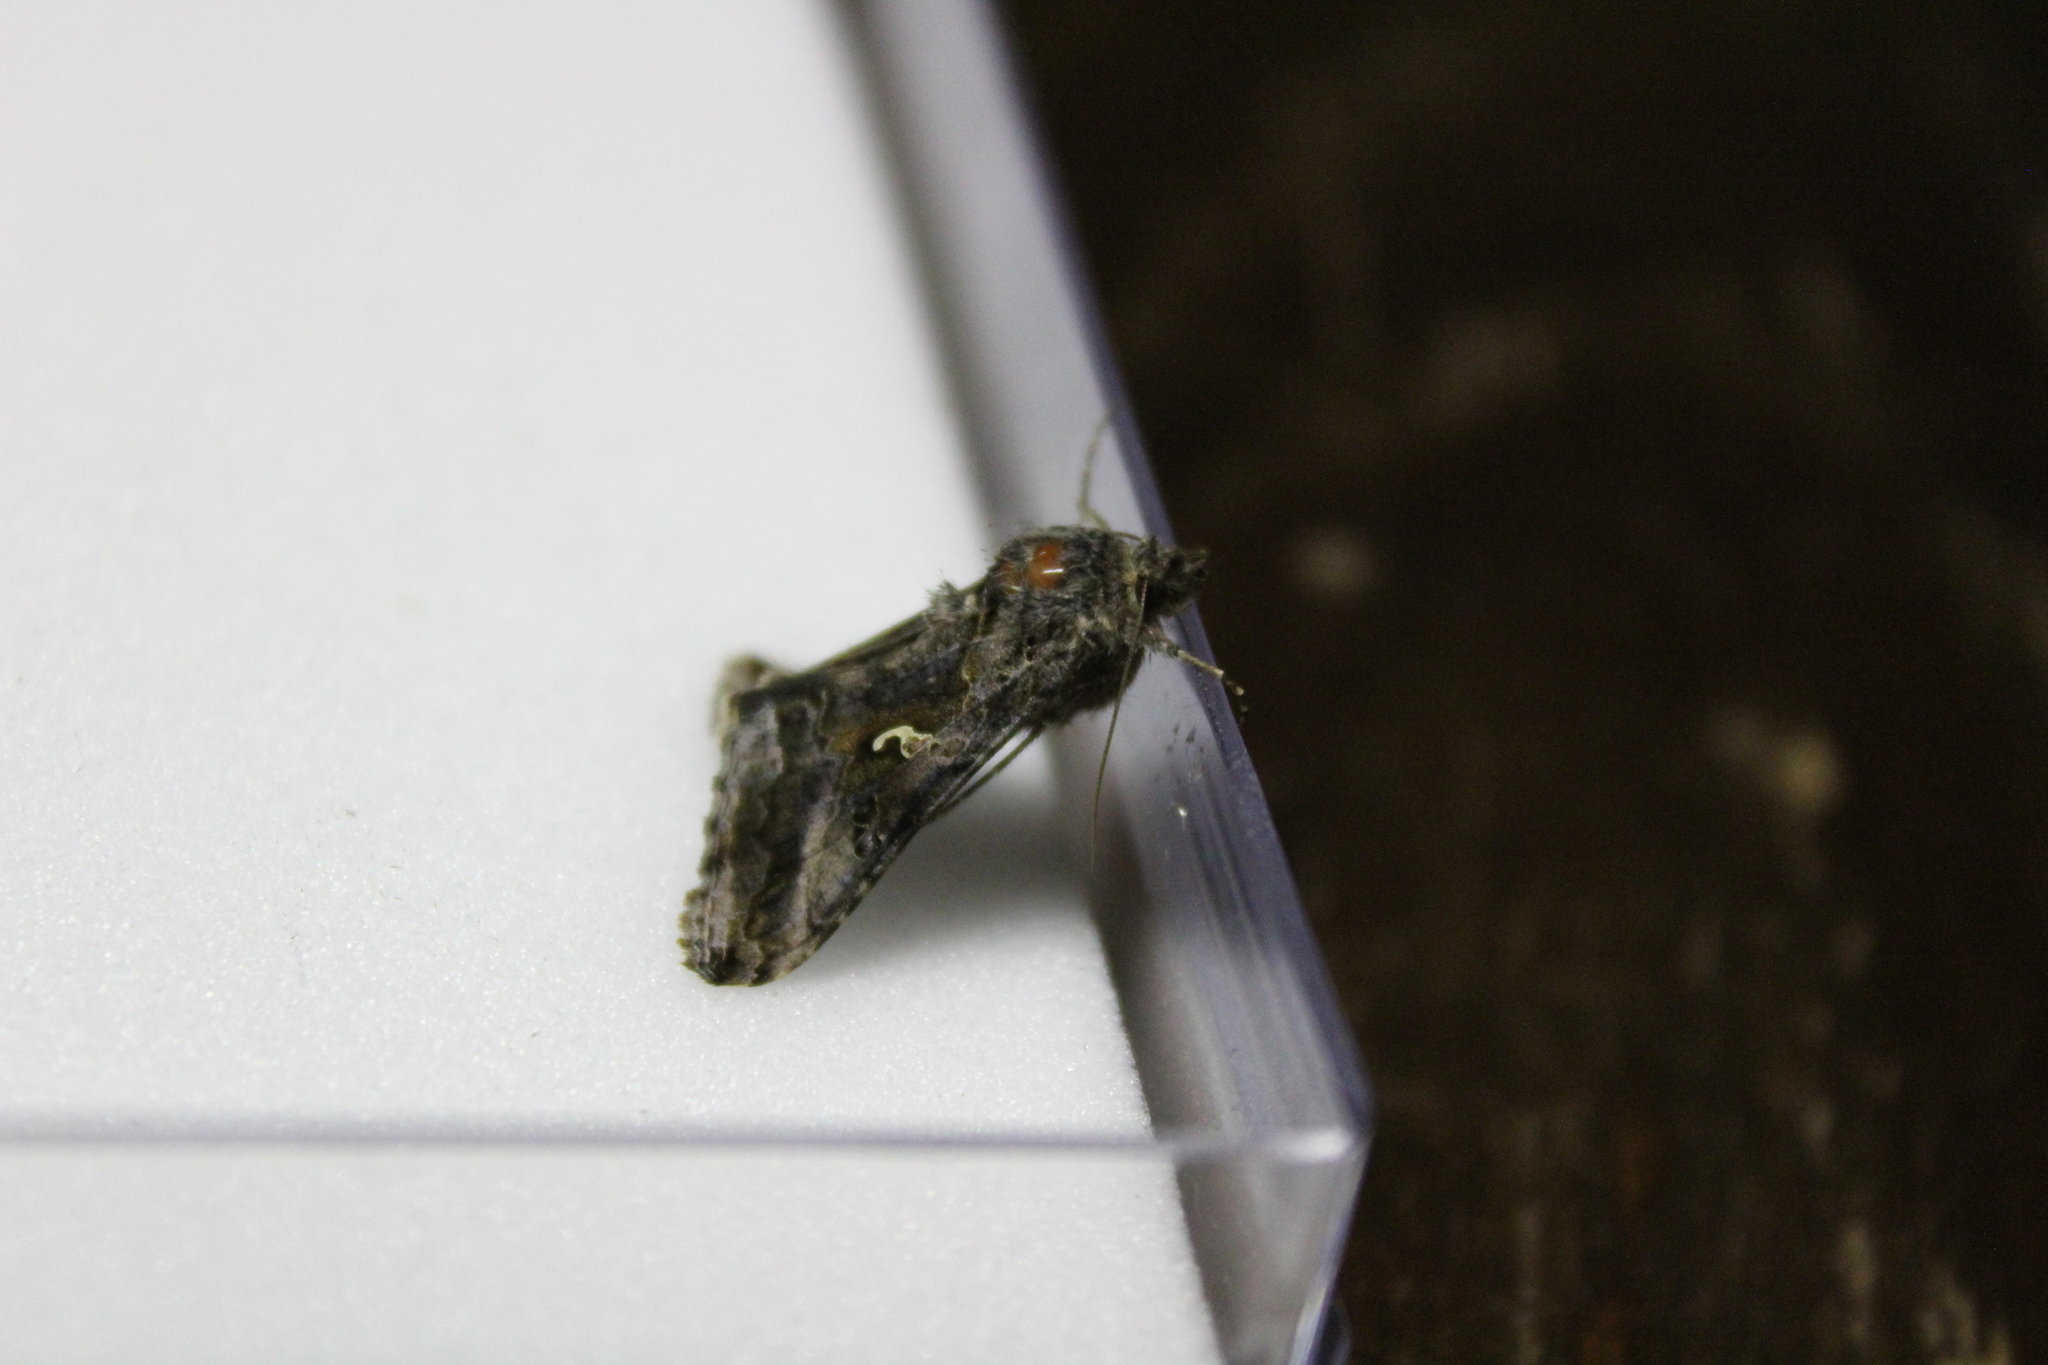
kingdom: Animalia
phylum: Arthropoda
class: Insecta
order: Lepidoptera
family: Noctuidae
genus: Autographa
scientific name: Autographa gamma
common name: Silver y
